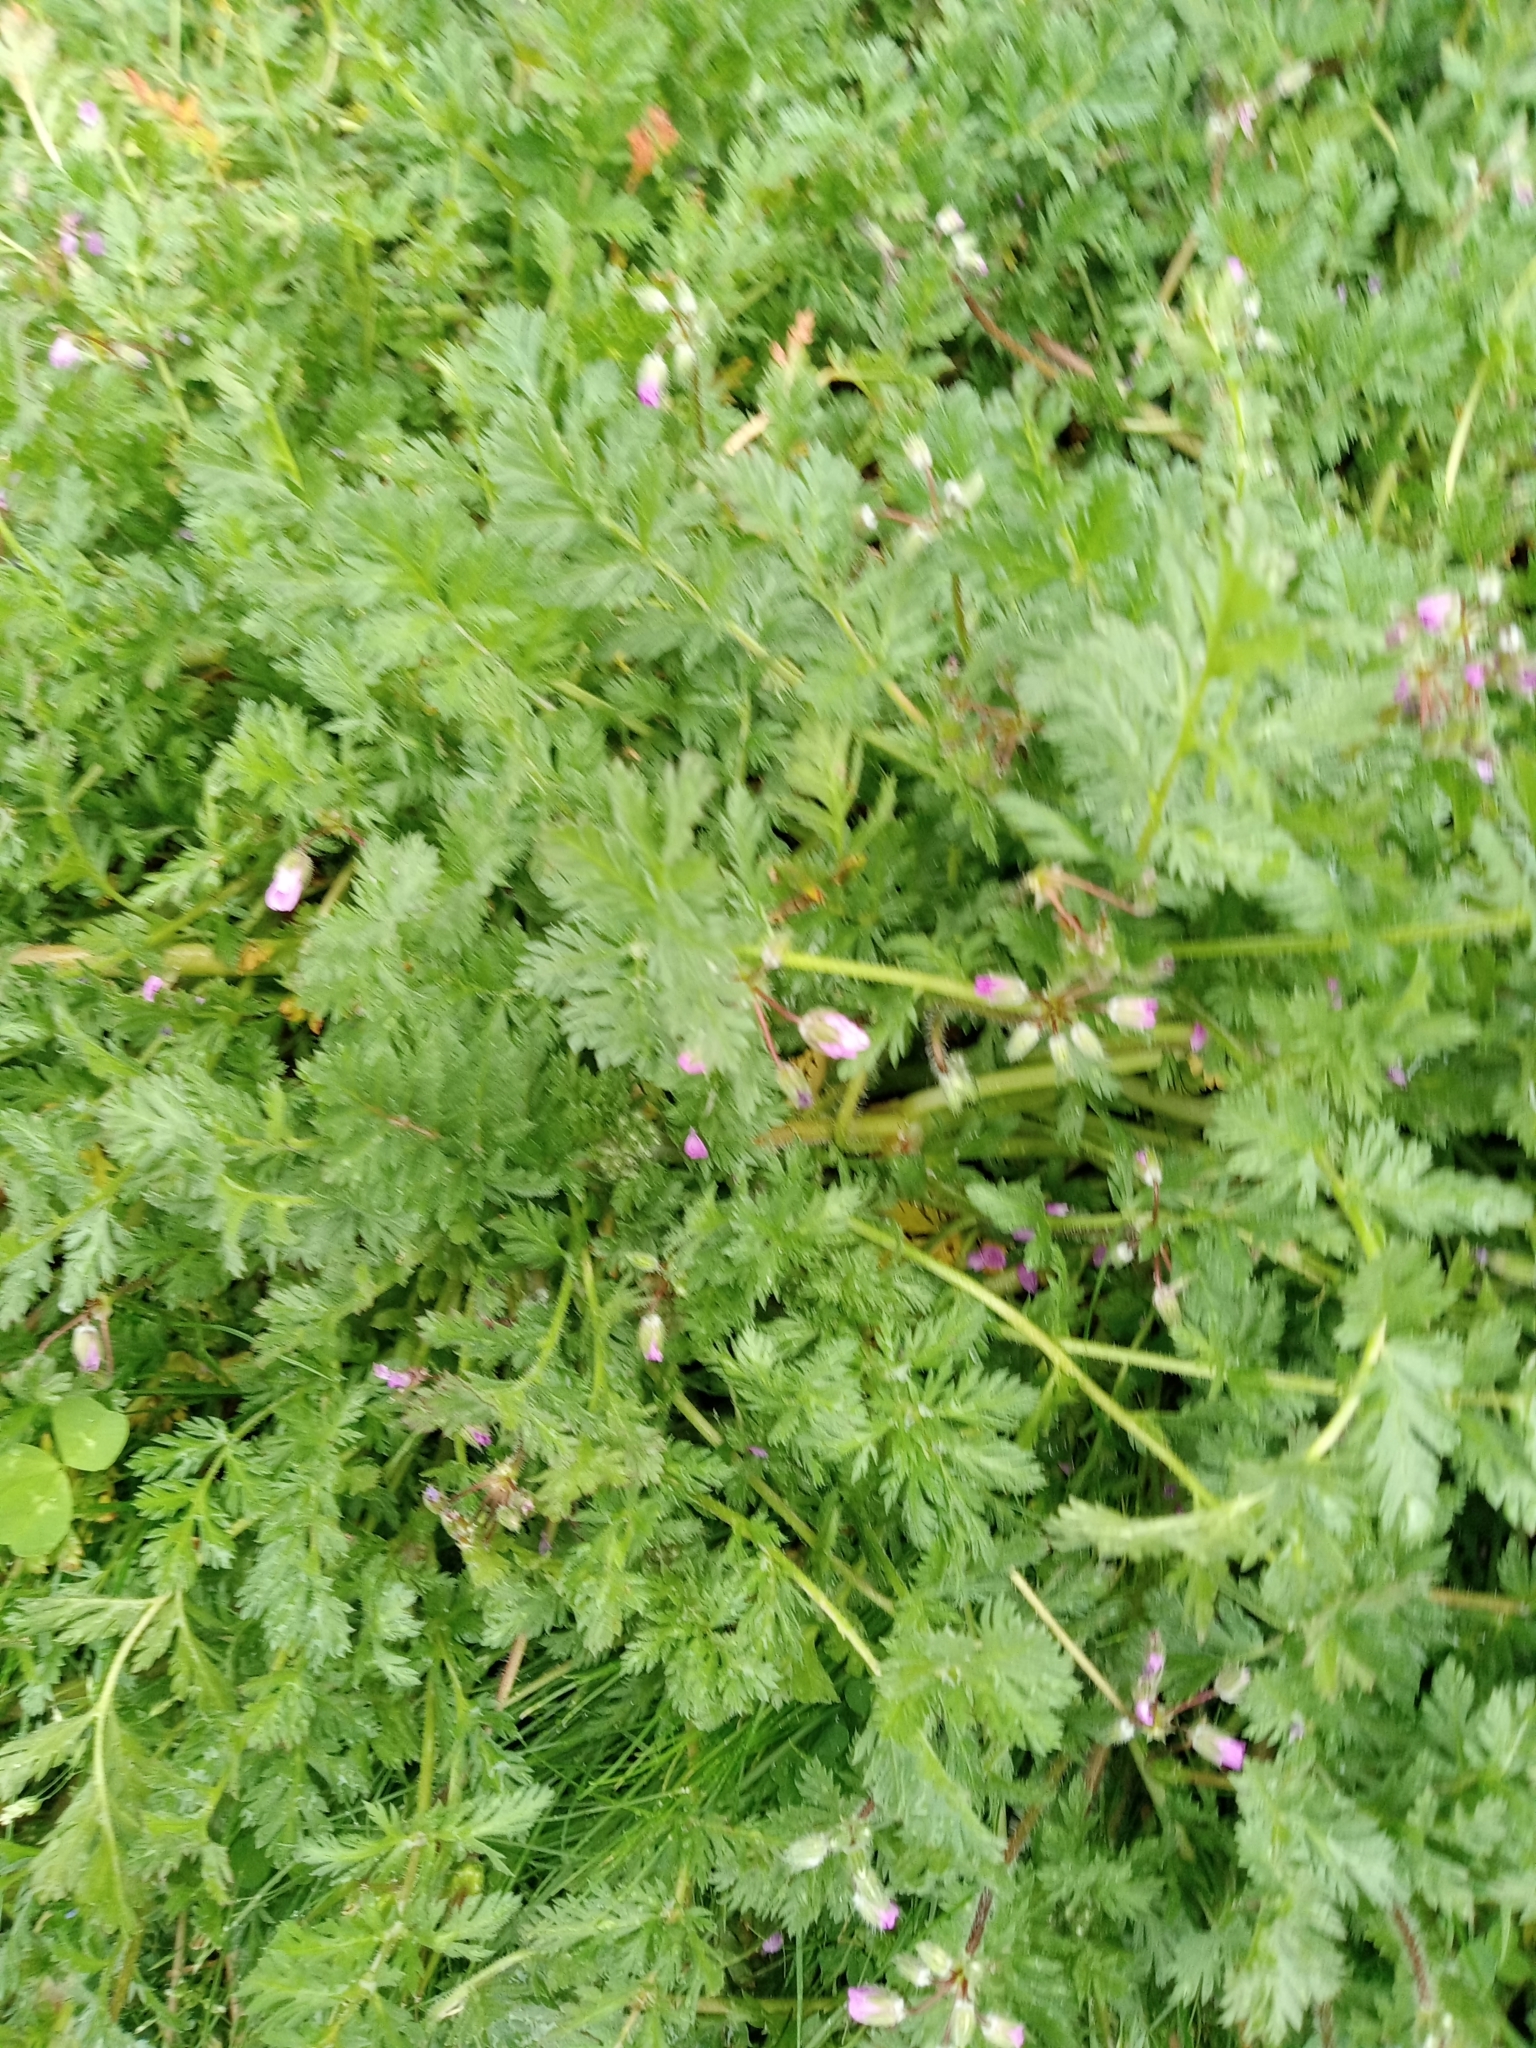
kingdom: Plantae
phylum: Tracheophyta
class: Magnoliopsida
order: Geraniales
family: Geraniaceae
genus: Erodium
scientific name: Erodium cicutarium
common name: Common stork's-bill
